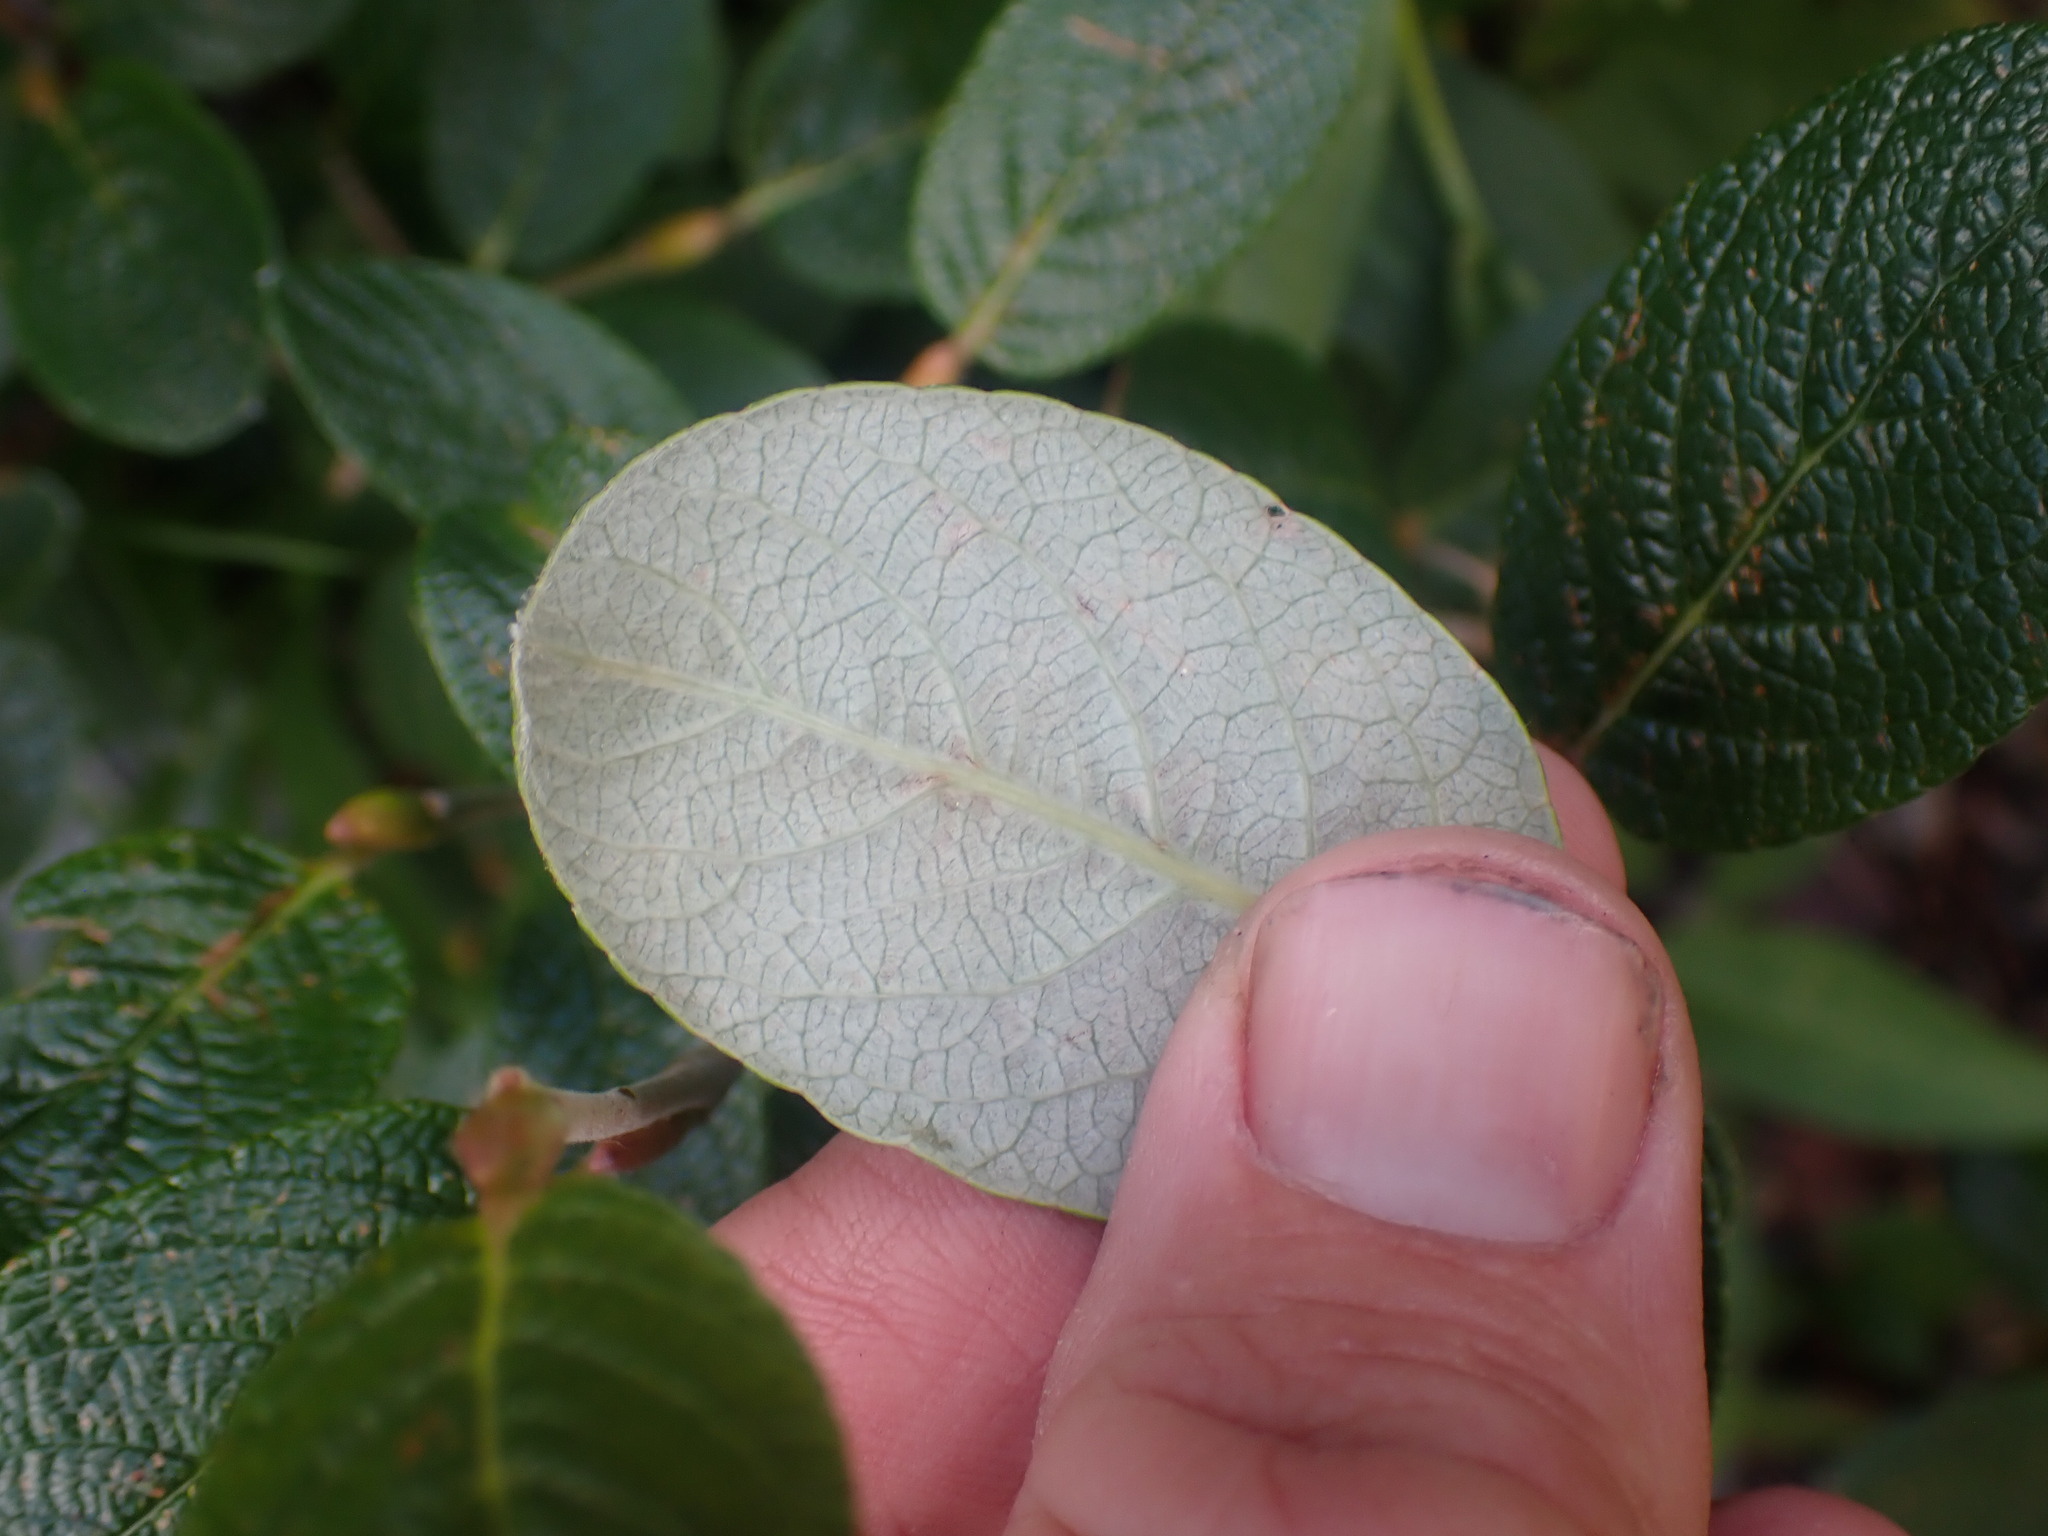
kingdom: Plantae
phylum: Tracheophyta
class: Magnoliopsida
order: Malpighiales
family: Salicaceae
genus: Salix
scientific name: Salix vestita
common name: Hairy willow
